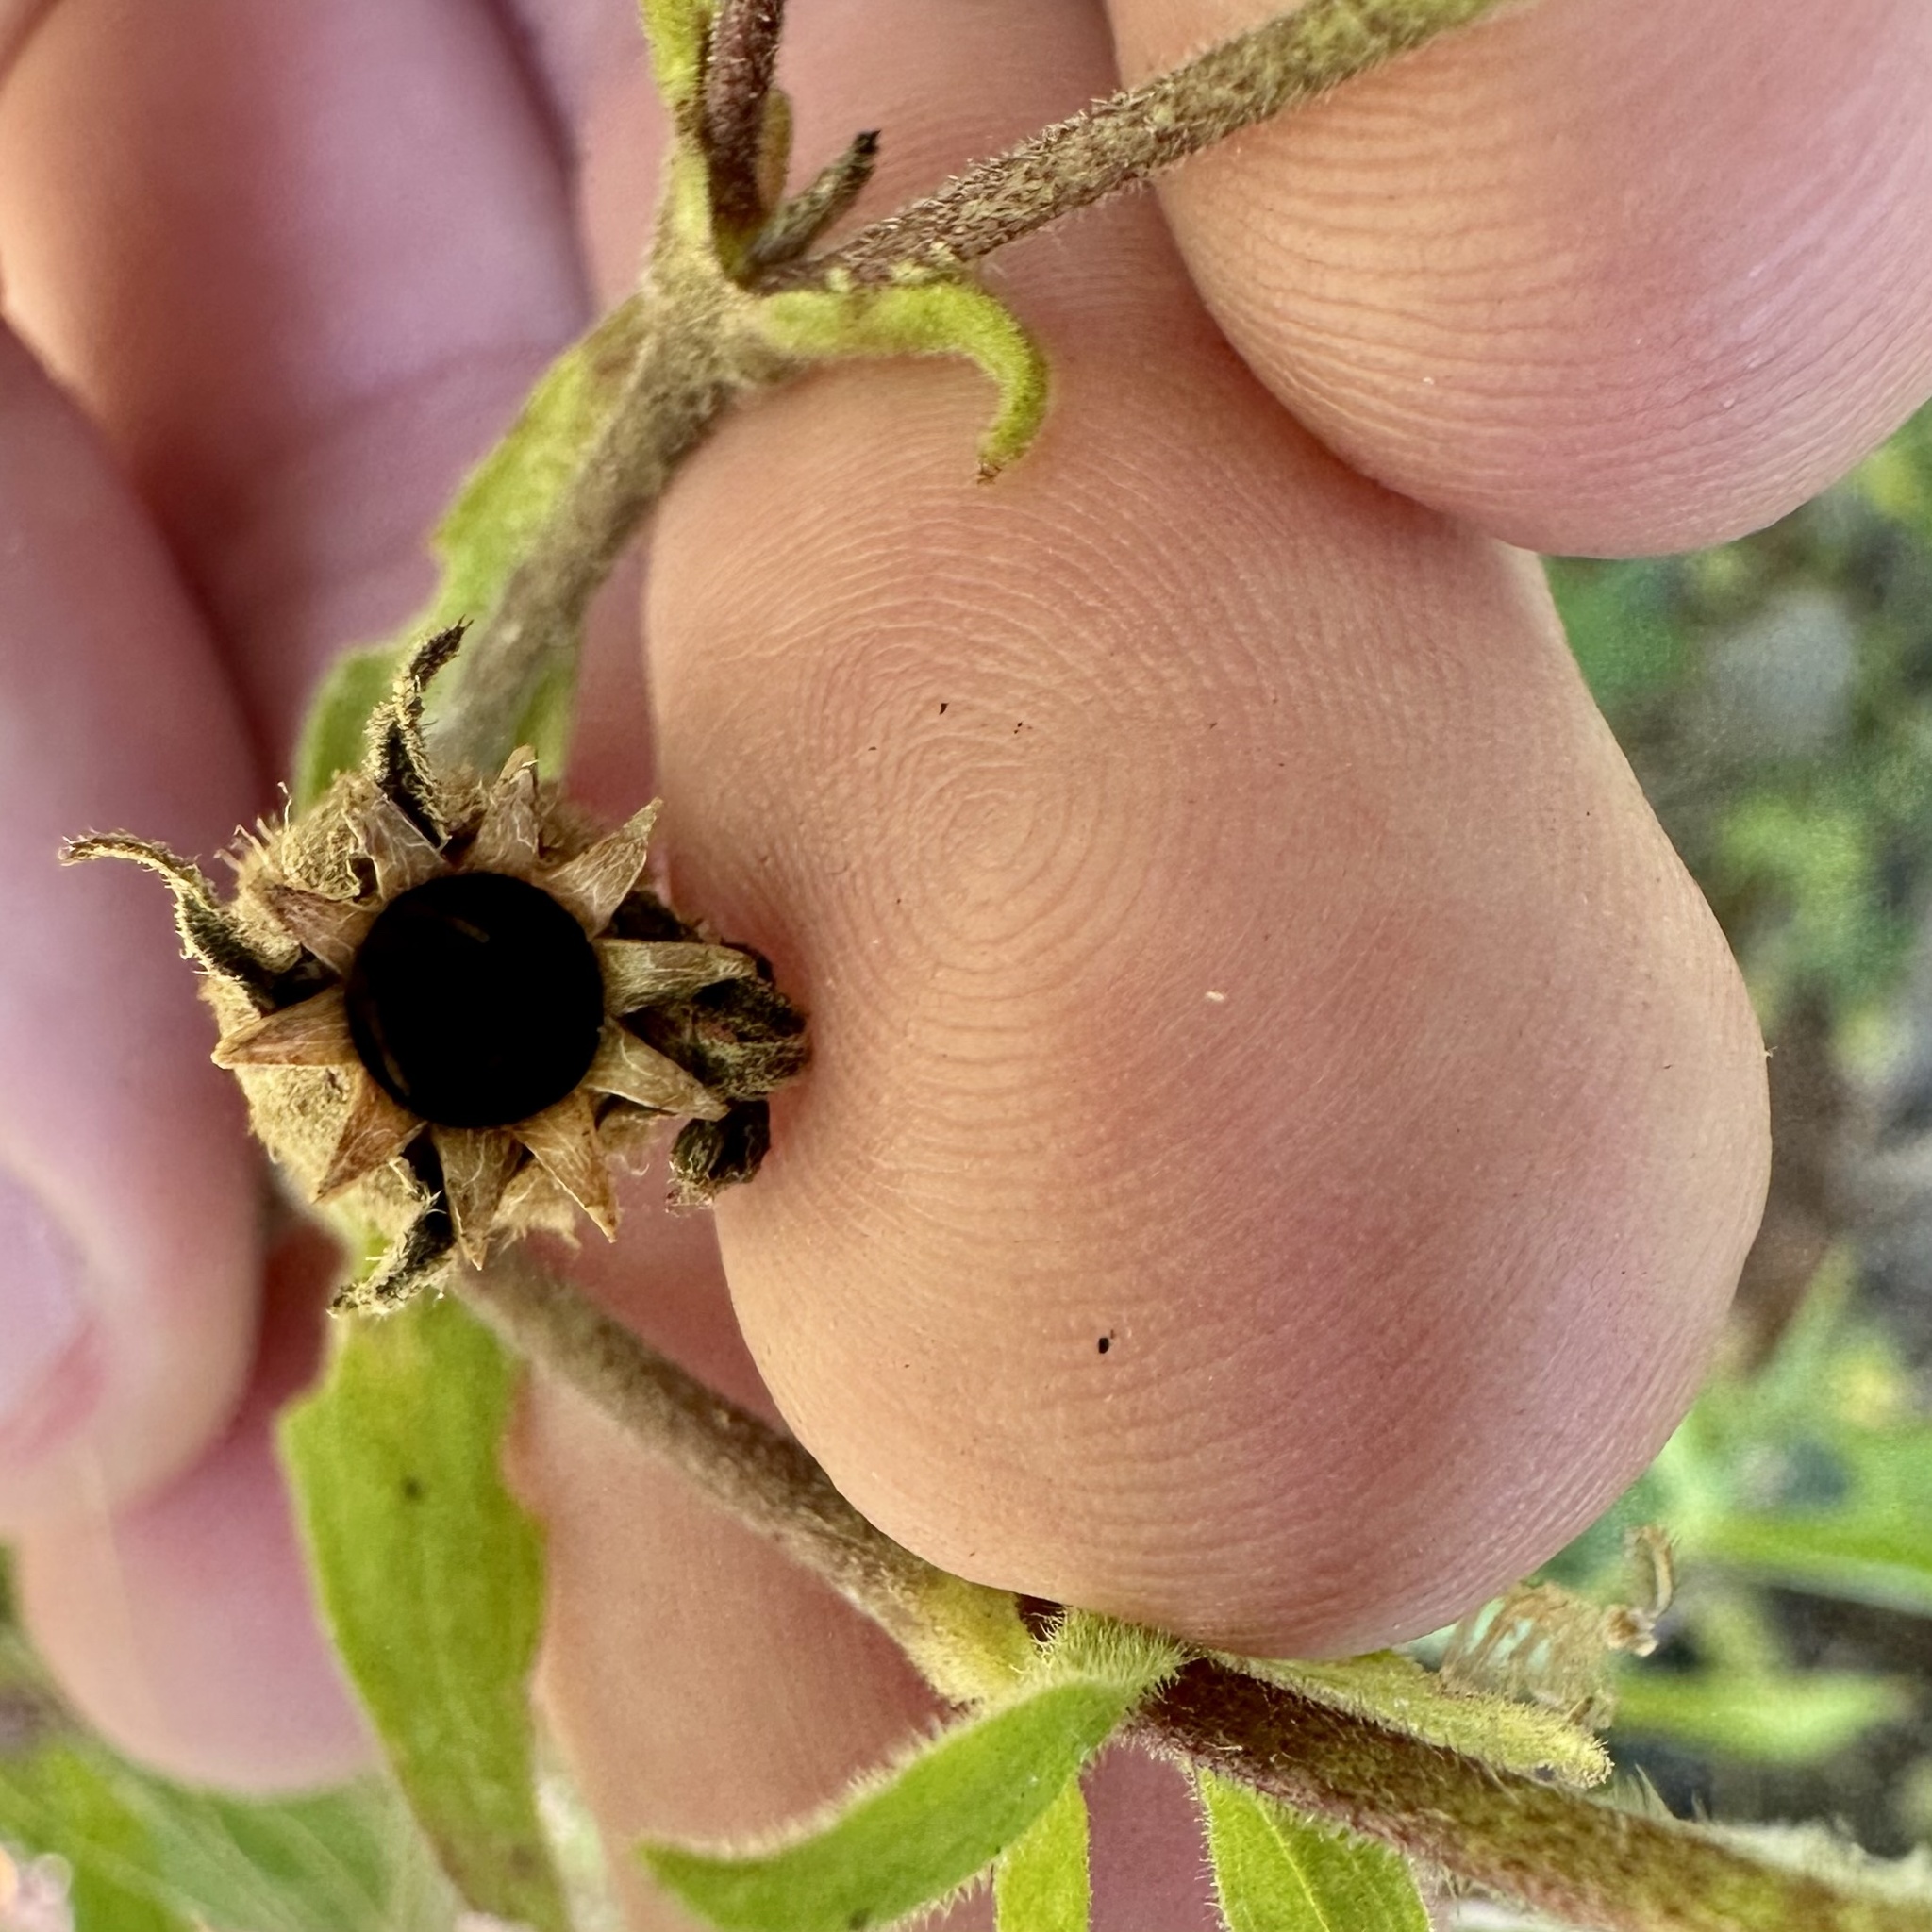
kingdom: Plantae
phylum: Tracheophyta
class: Magnoliopsida
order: Caryophyllales
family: Caryophyllaceae
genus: Silene
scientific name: Silene latifolia
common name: White campion
